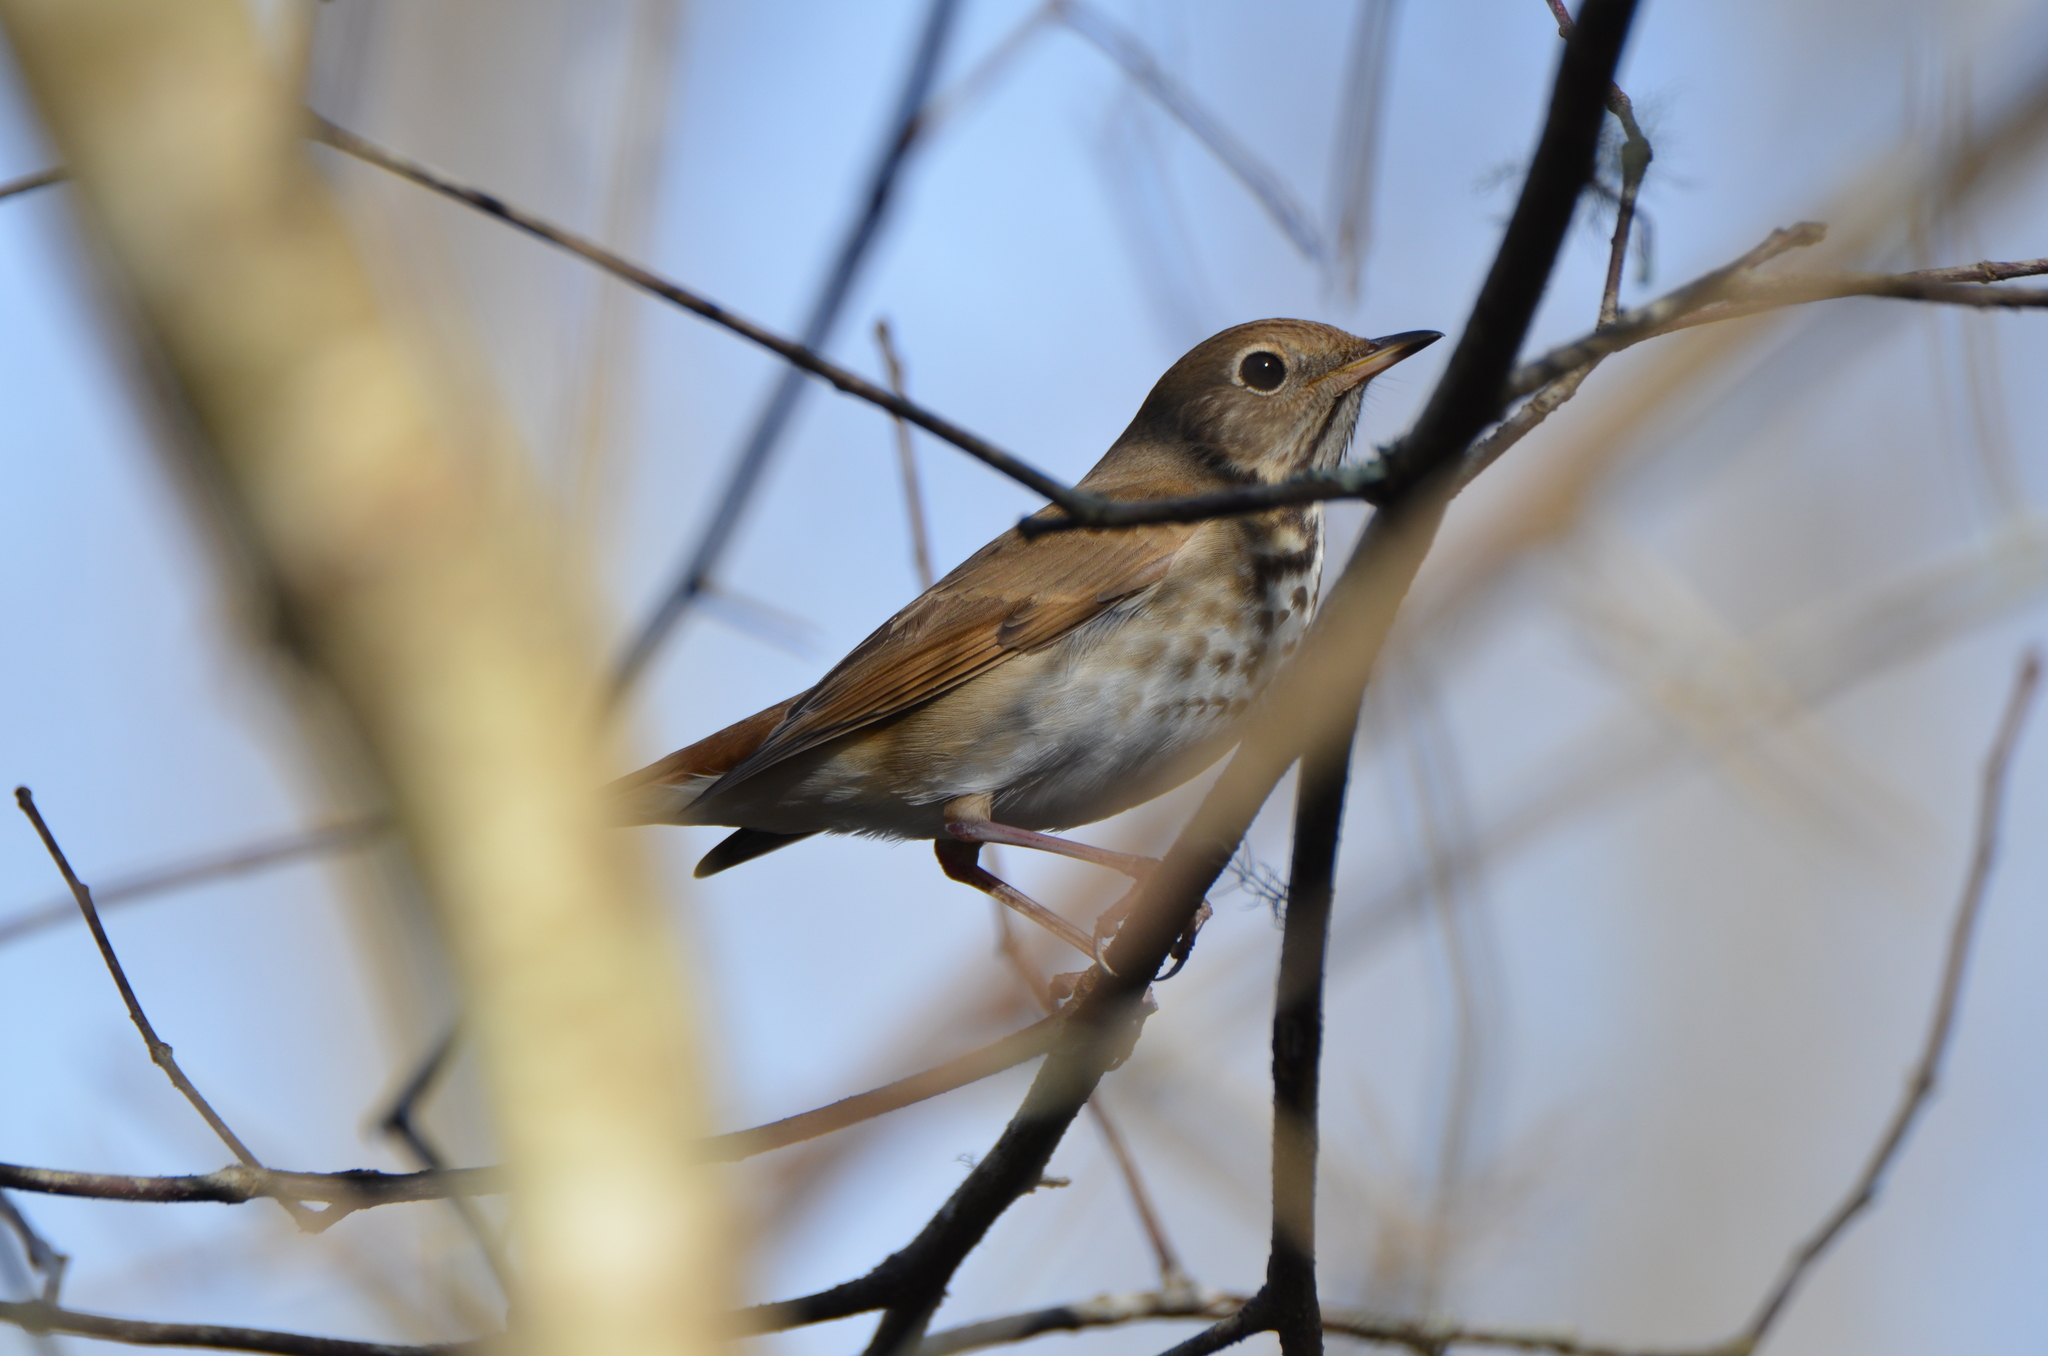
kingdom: Animalia
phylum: Chordata
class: Aves
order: Passeriformes
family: Turdidae
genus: Catharus
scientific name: Catharus guttatus
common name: Hermit thrush
